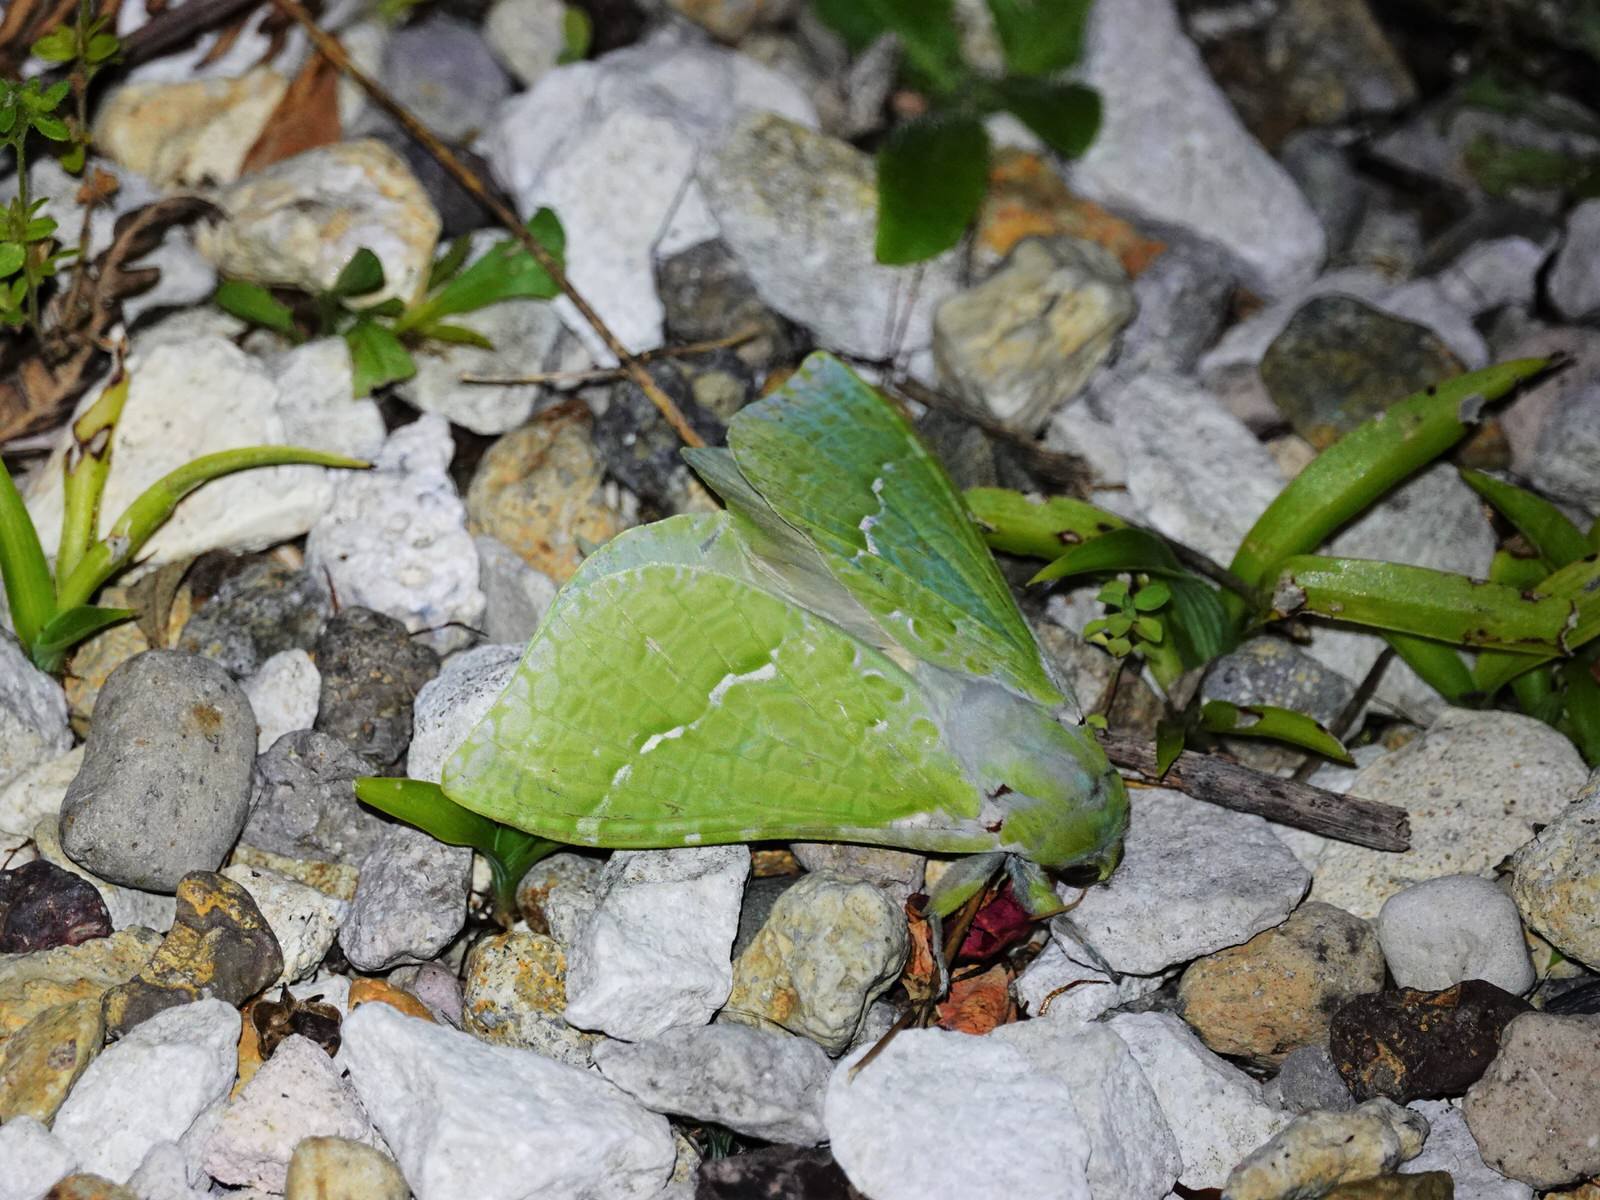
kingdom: Animalia
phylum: Arthropoda
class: Insecta
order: Lepidoptera
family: Hepialidae
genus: Aenetus
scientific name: Aenetus virescens
